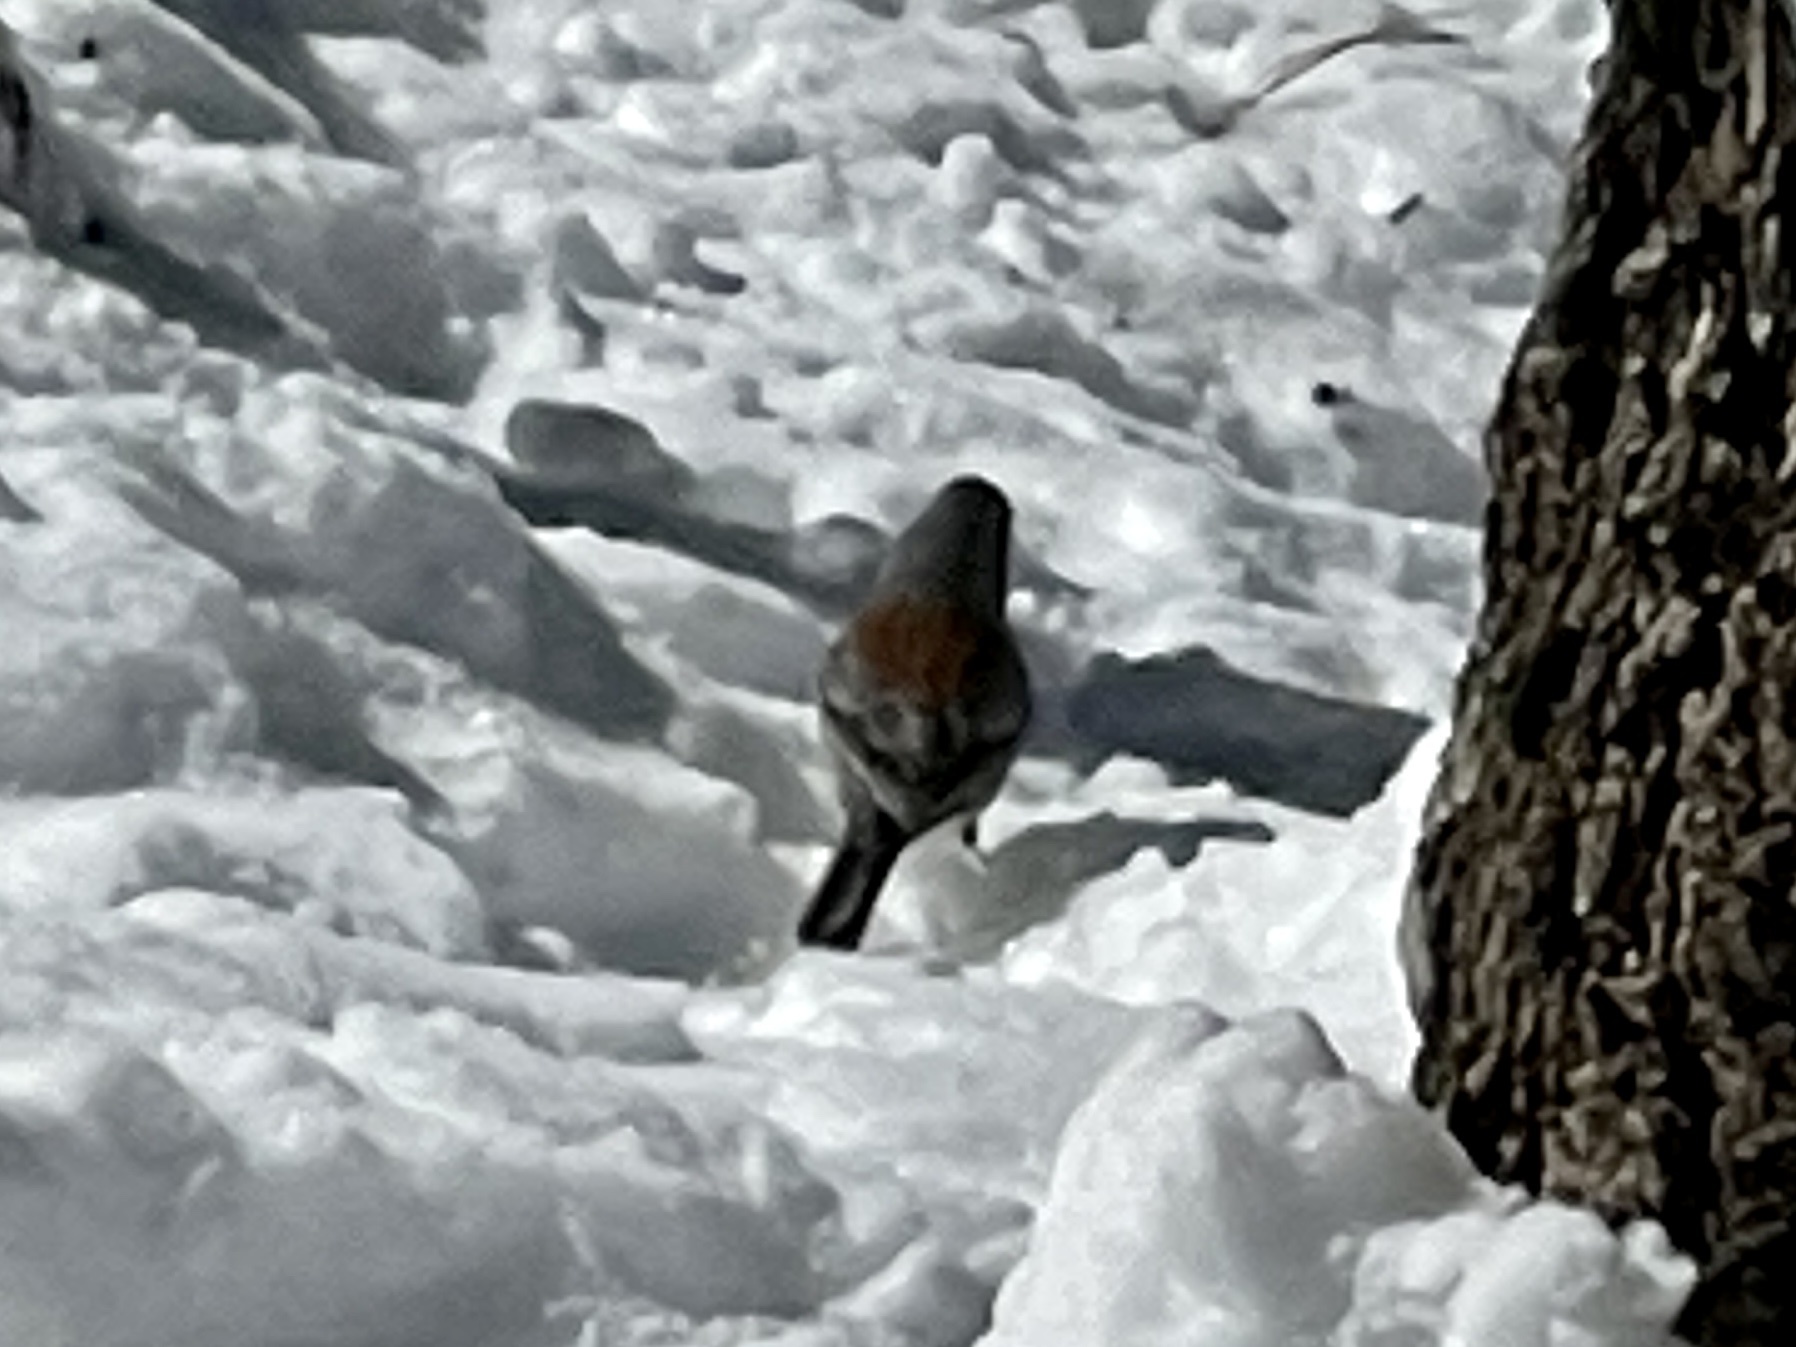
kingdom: Animalia
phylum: Chordata
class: Aves
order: Passeriformes
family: Passerellidae
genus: Junco
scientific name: Junco hyemalis
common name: Dark-eyed junco
